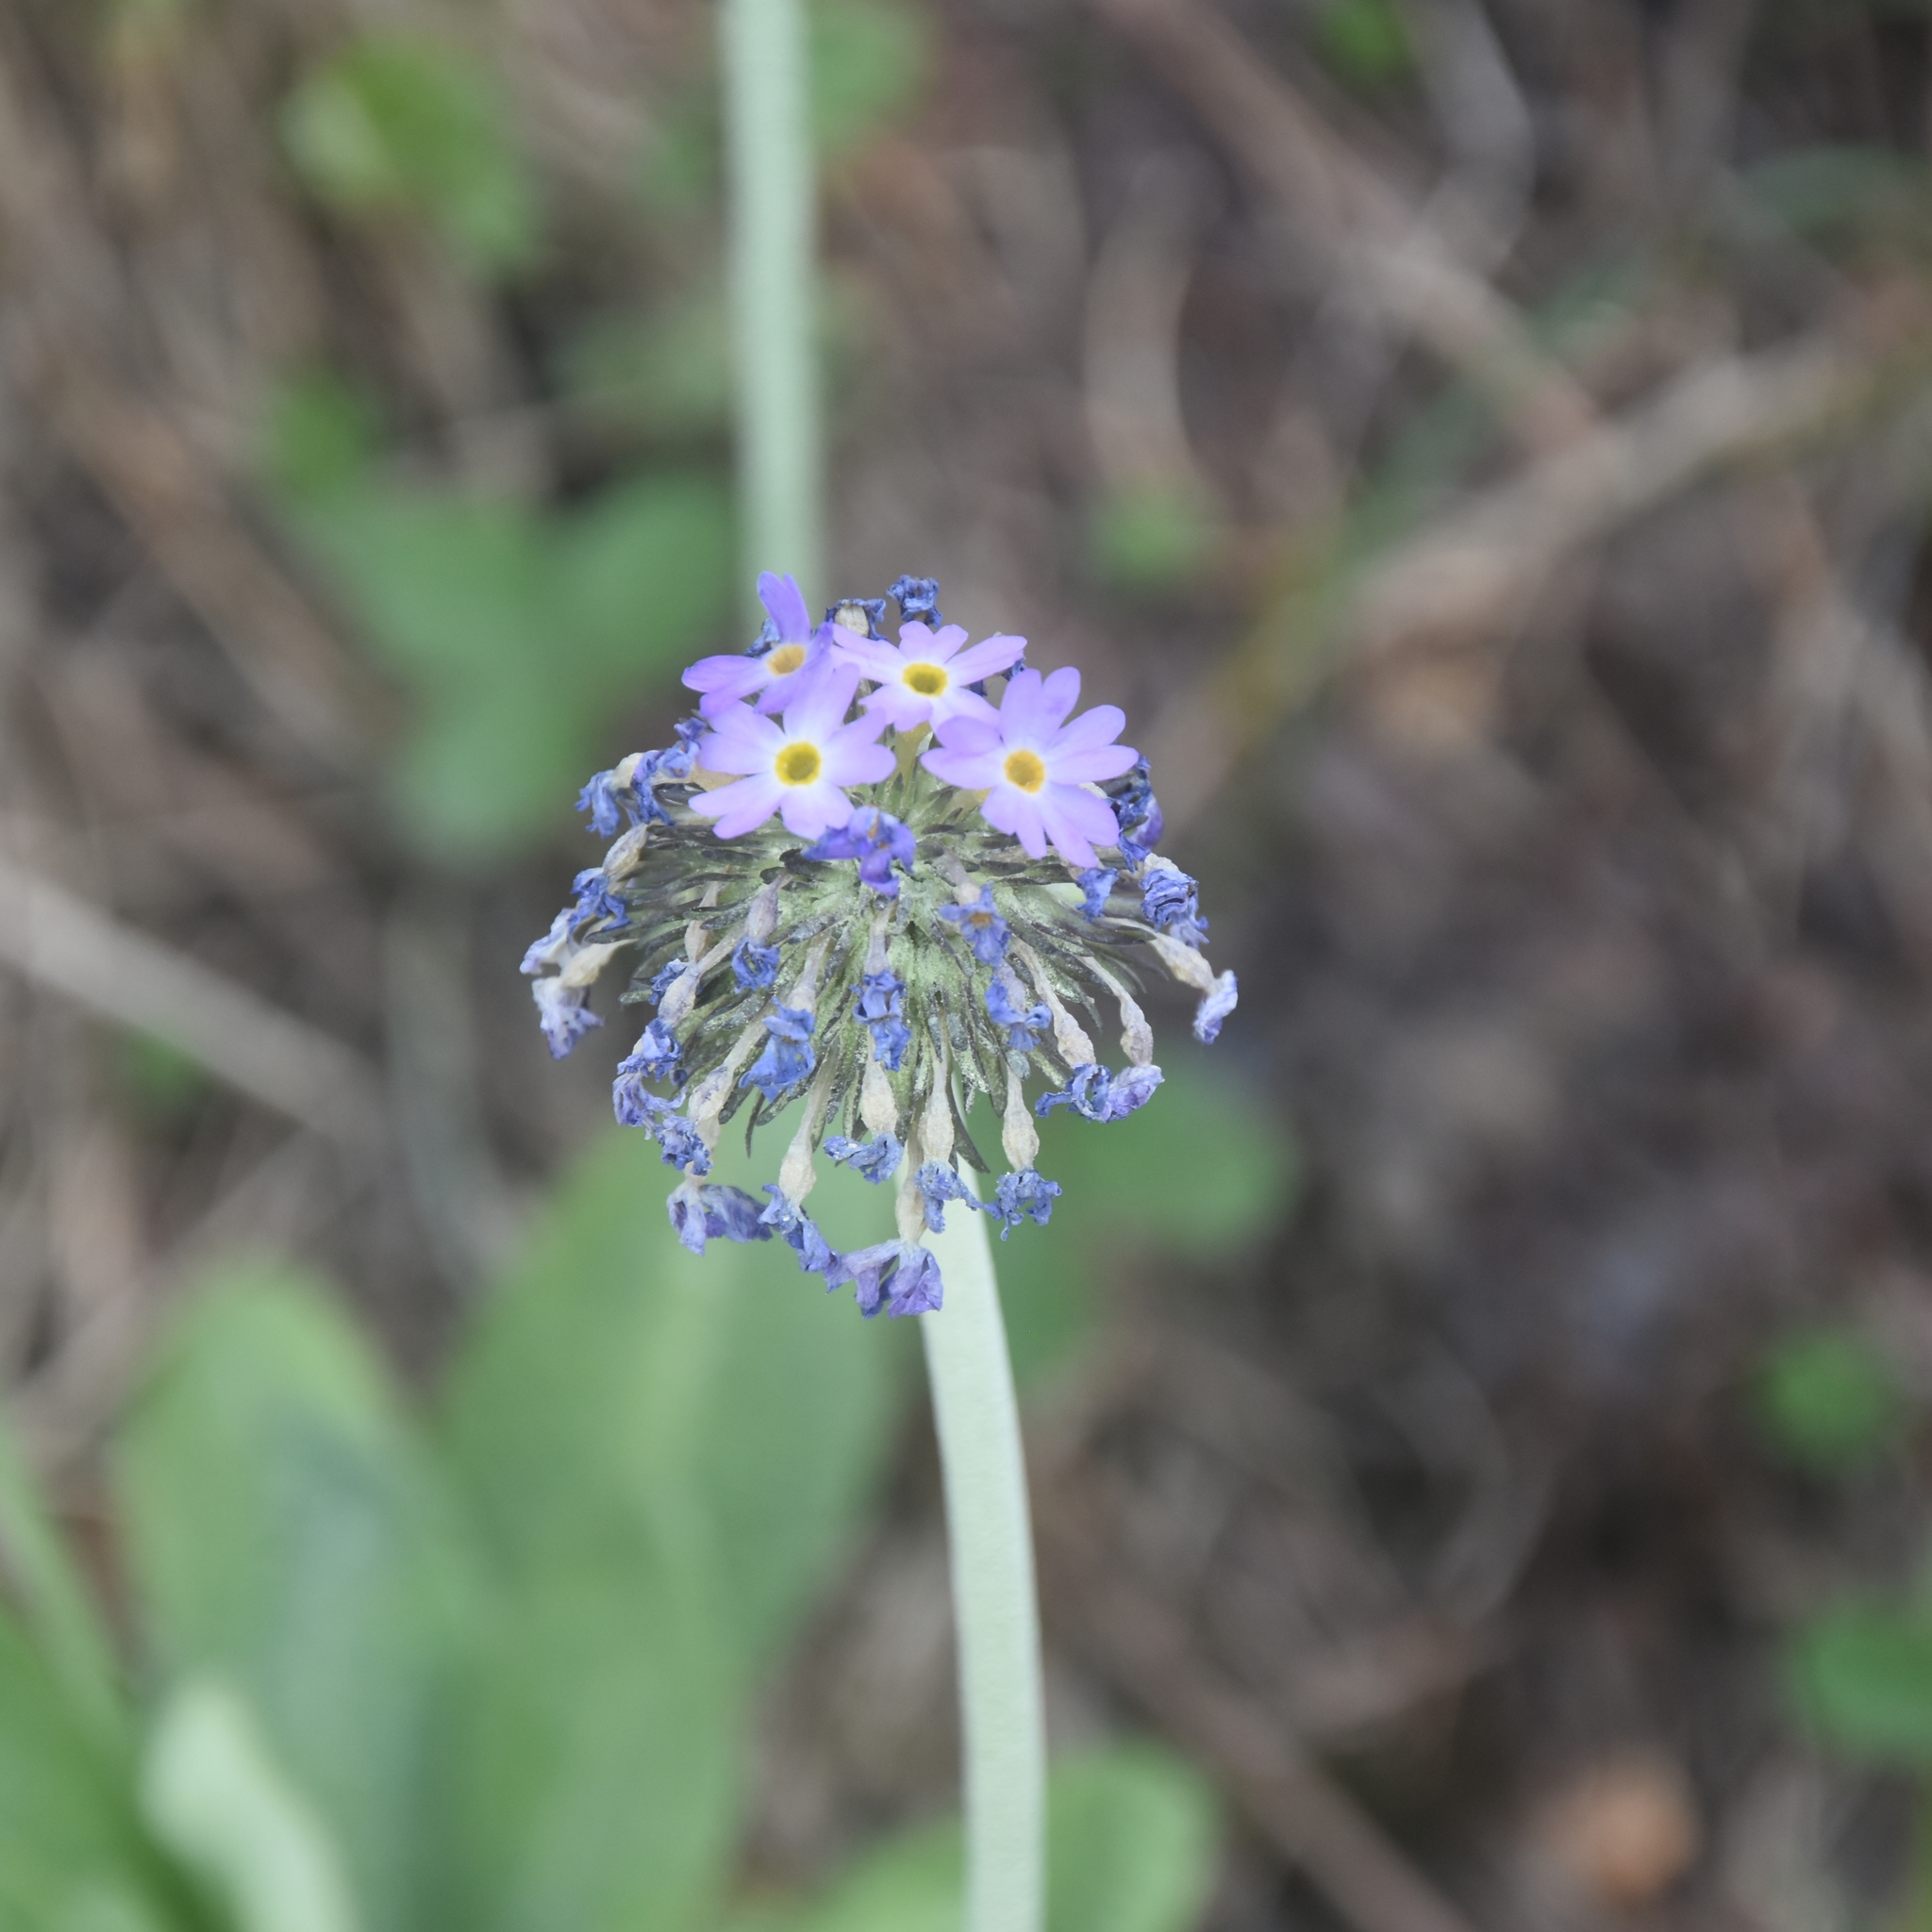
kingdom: Plantae
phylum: Tracheophyta
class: Magnoliopsida
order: Ericales
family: Primulaceae
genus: Primula
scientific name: Primula denticulata
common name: Drumstick primula
